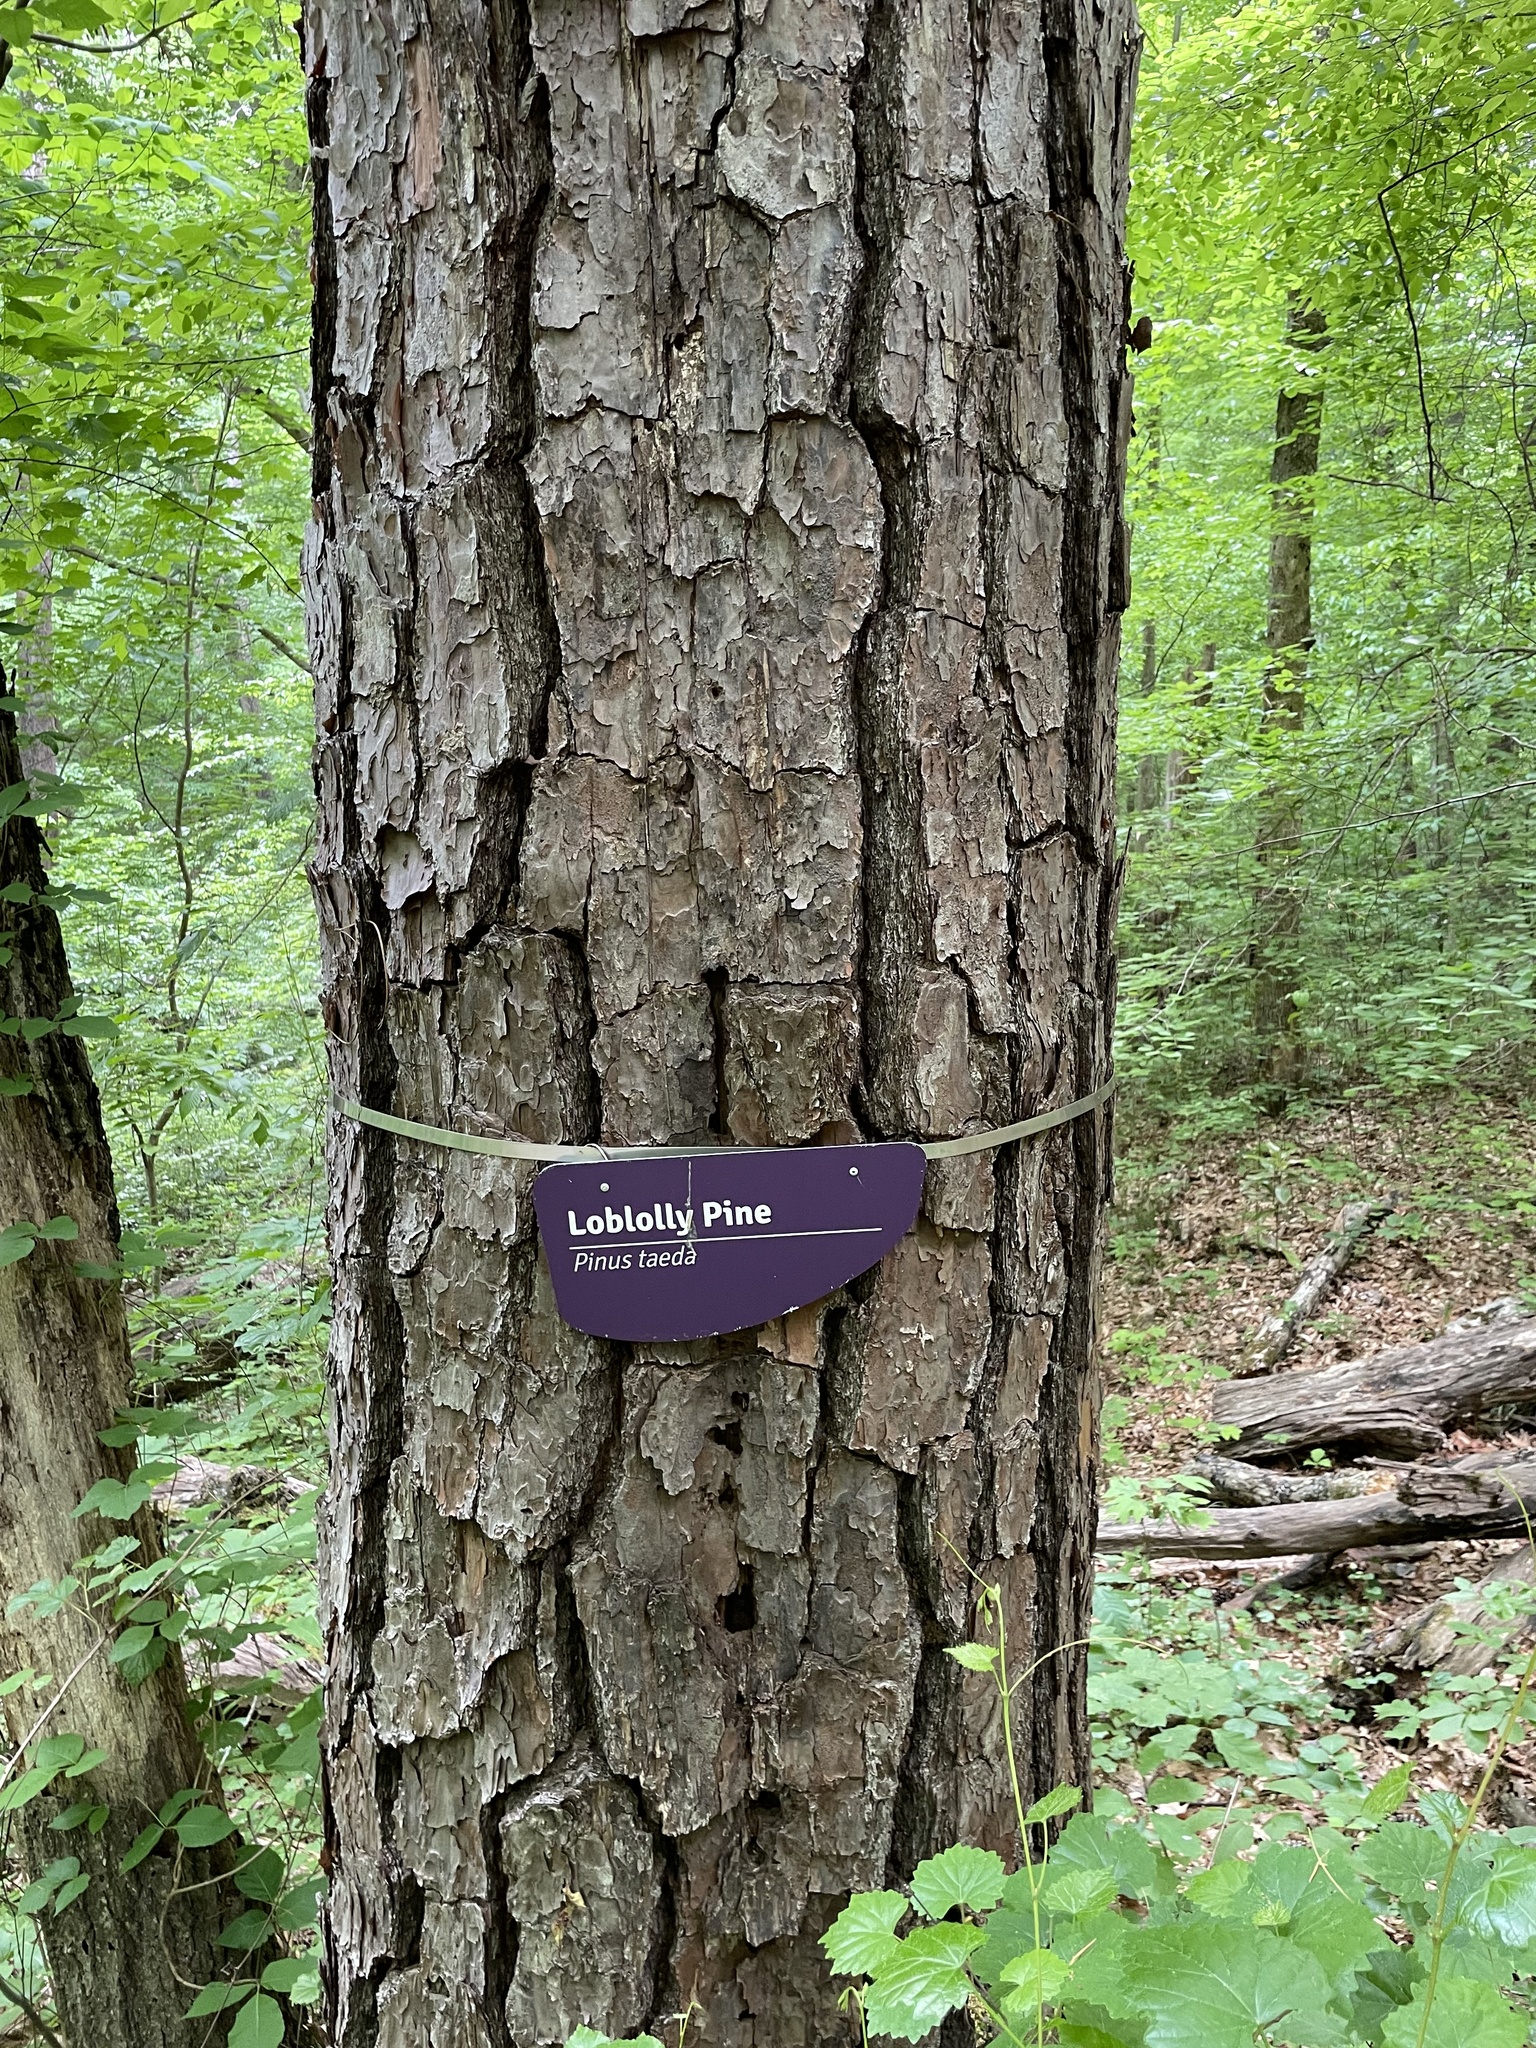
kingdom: Plantae
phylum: Tracheophyta
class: Pinopsida
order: Pinales
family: Pinaceae
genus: Pinus
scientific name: Pinus taeda
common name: Loblolly pine
